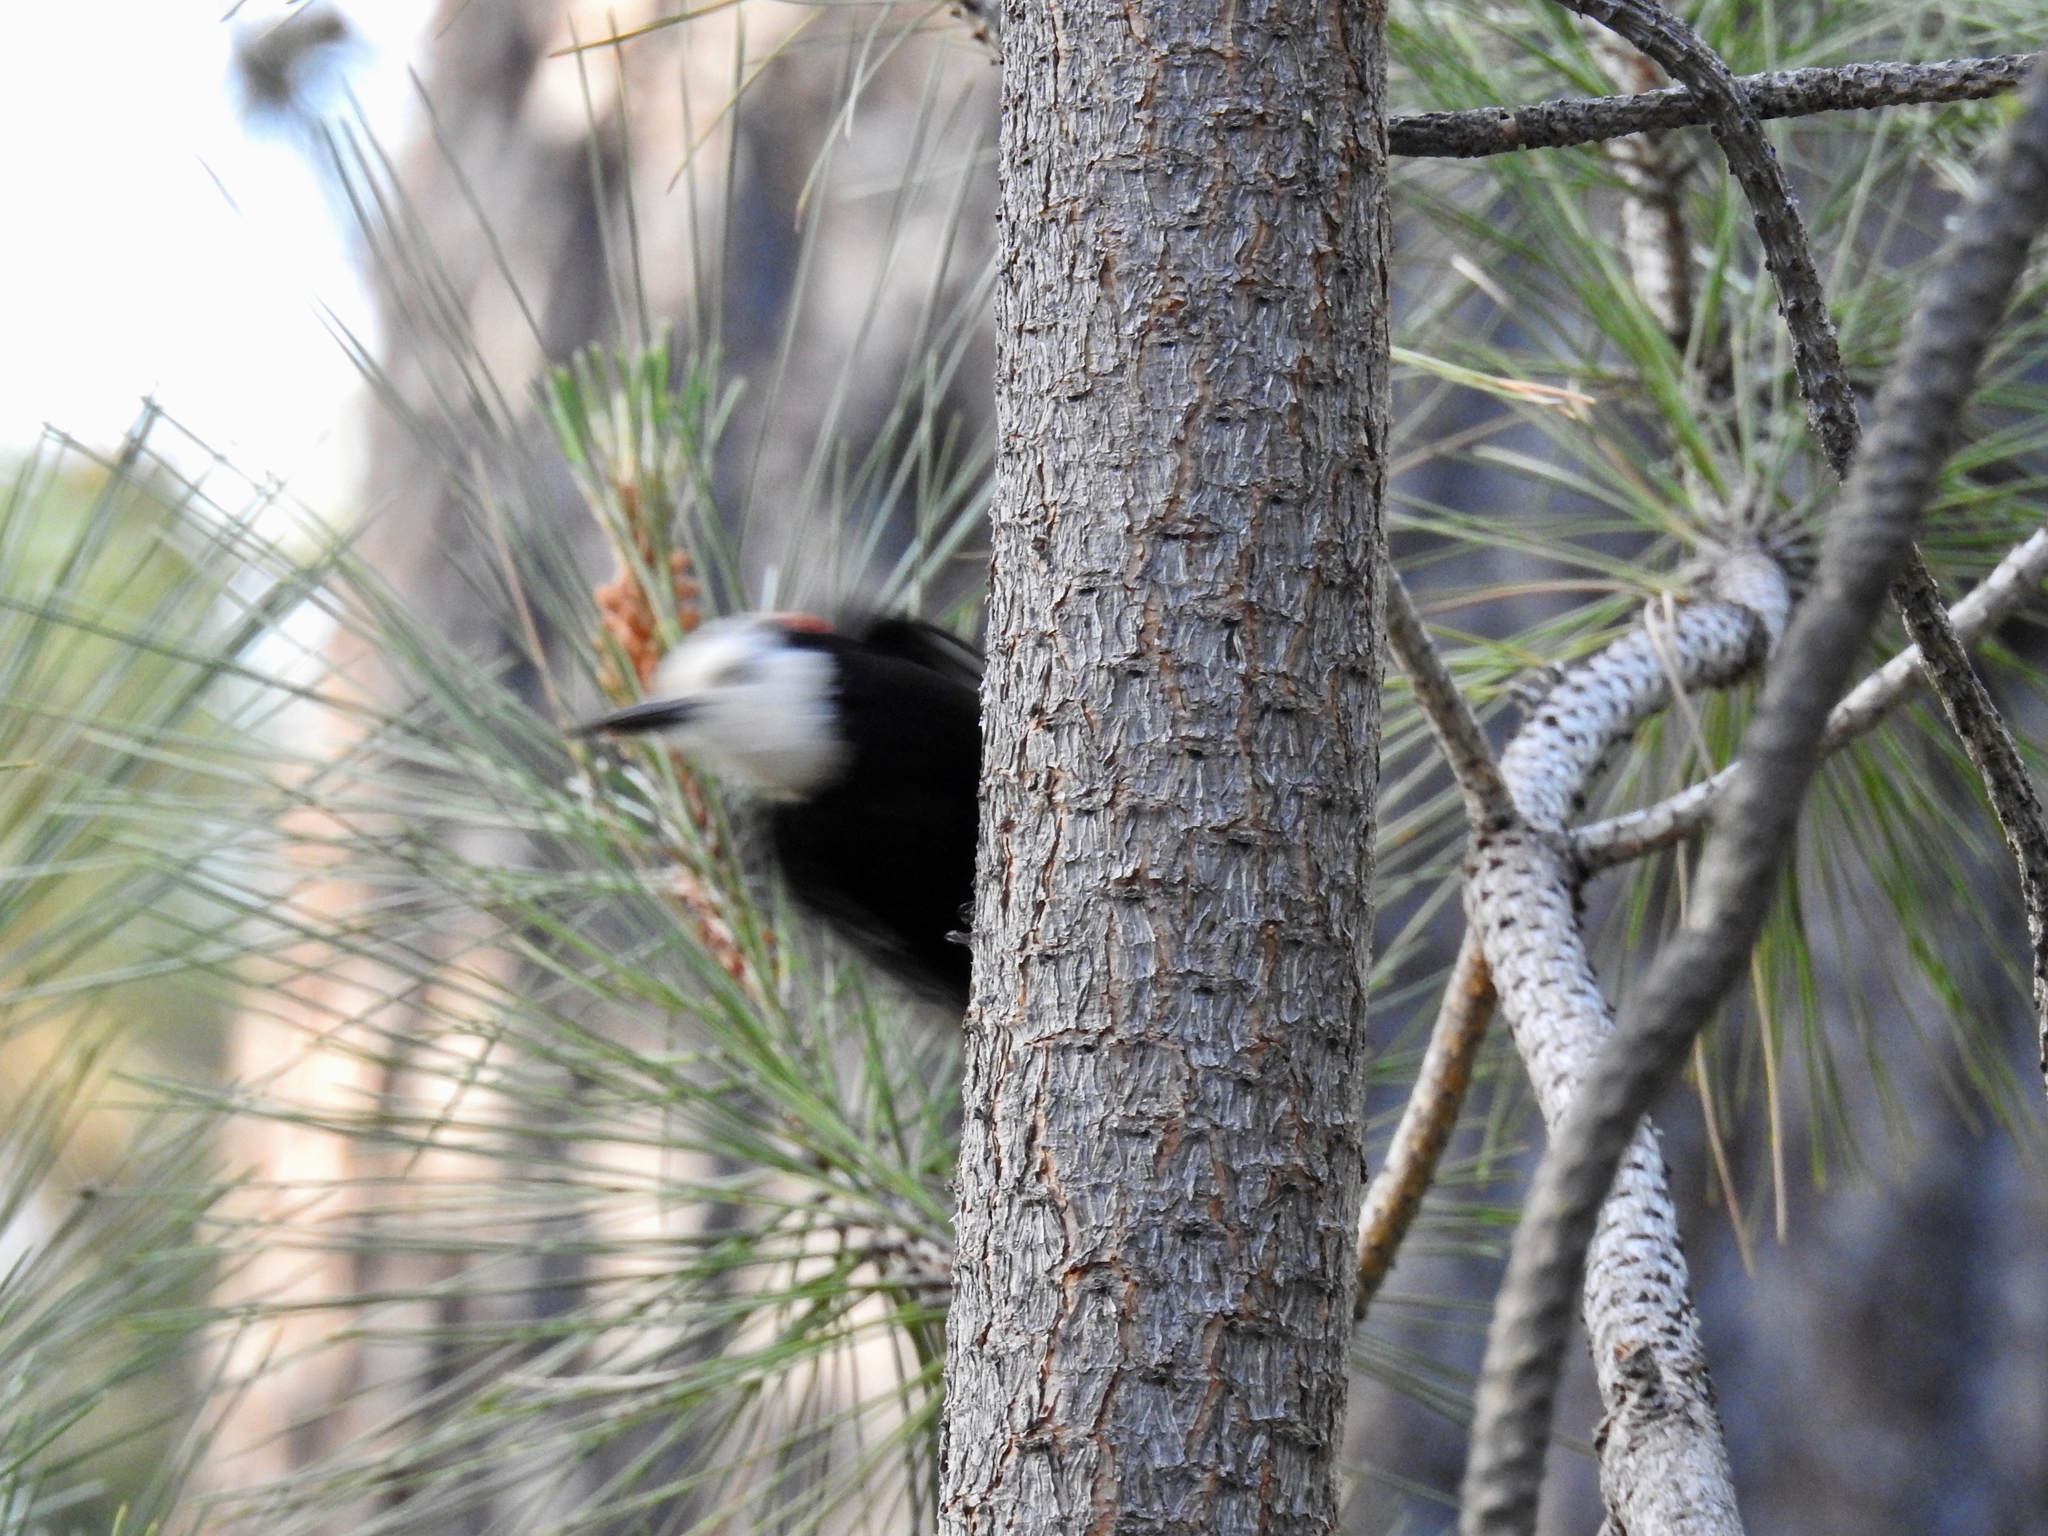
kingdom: Animalia
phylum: Chordata
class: Aves
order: Piciformes
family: Picidae
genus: Leuconotopicus
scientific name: Leuconotopicus albolarvatus
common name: White-headed woodpecker
